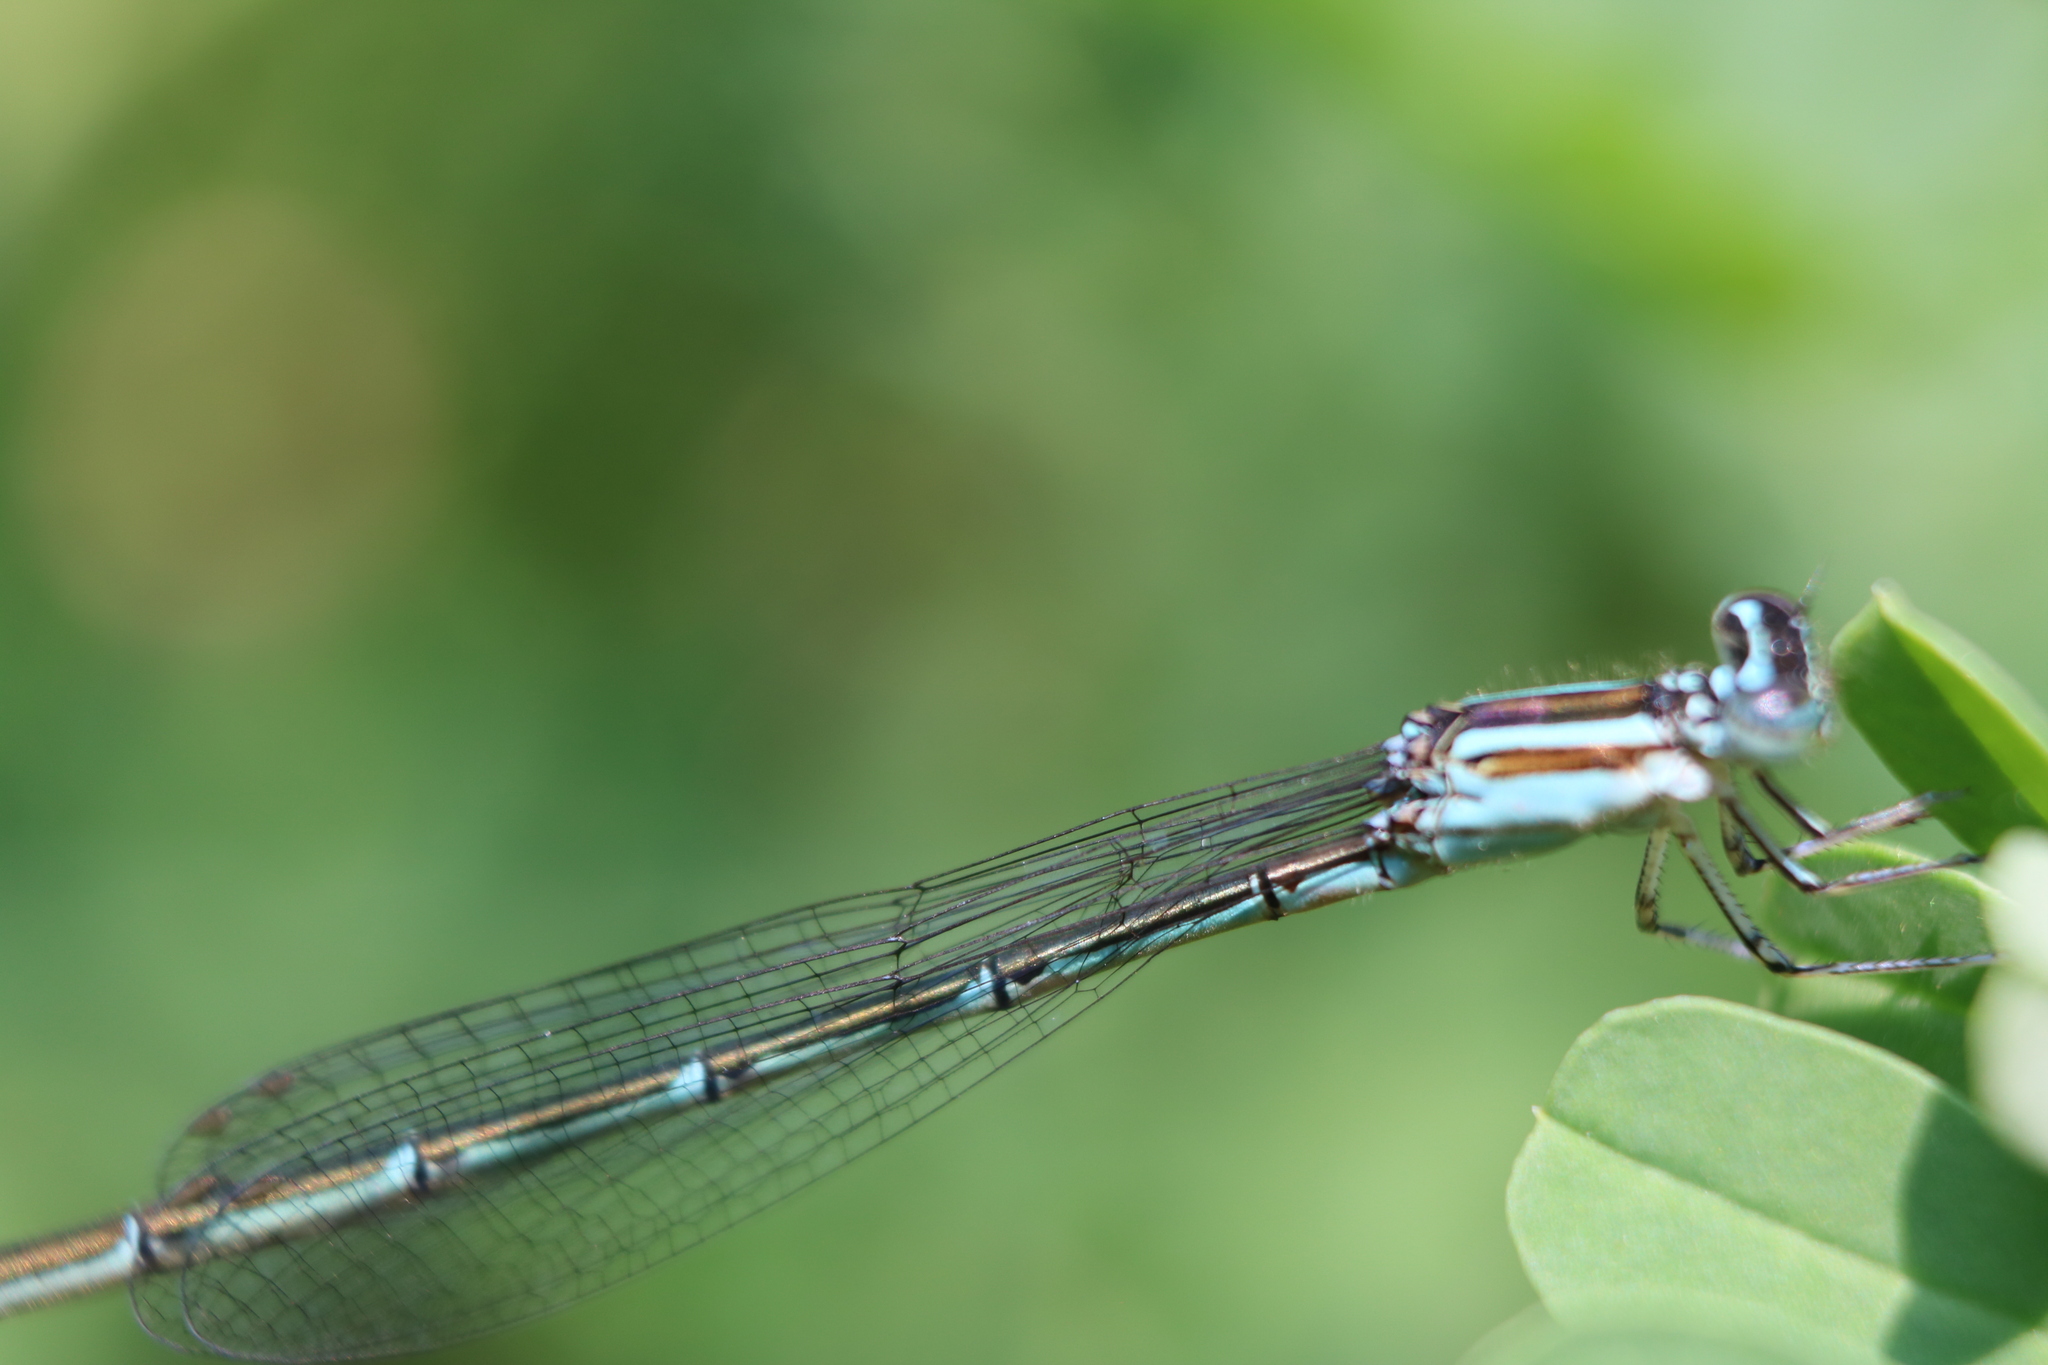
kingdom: Animalia
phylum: Arthropoda
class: Insecta
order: Odonata
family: Coenagrionidae
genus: Enallagma
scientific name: Enallagma exsulans
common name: Stream bluet
